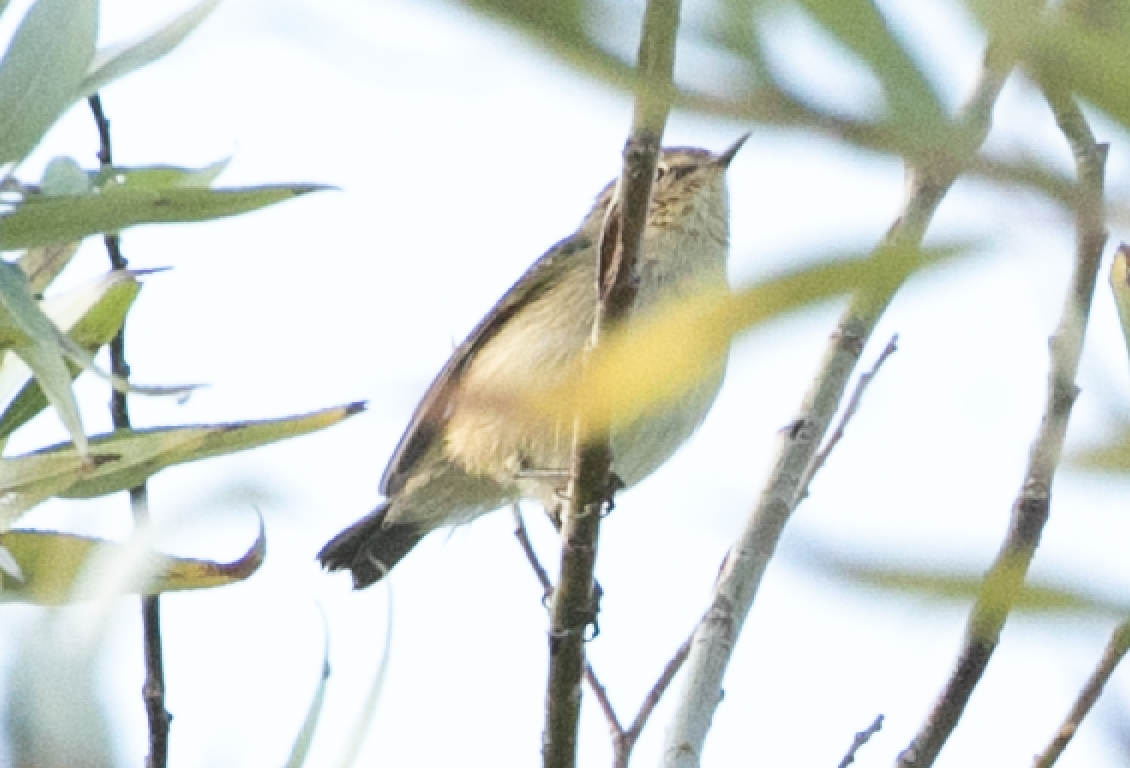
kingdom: Animalia
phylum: Chordata
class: Aves
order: Passeriformes
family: Phylloscopidae
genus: Phylloscopus
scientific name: Phylloscopus collybita
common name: Common chiffchaff
